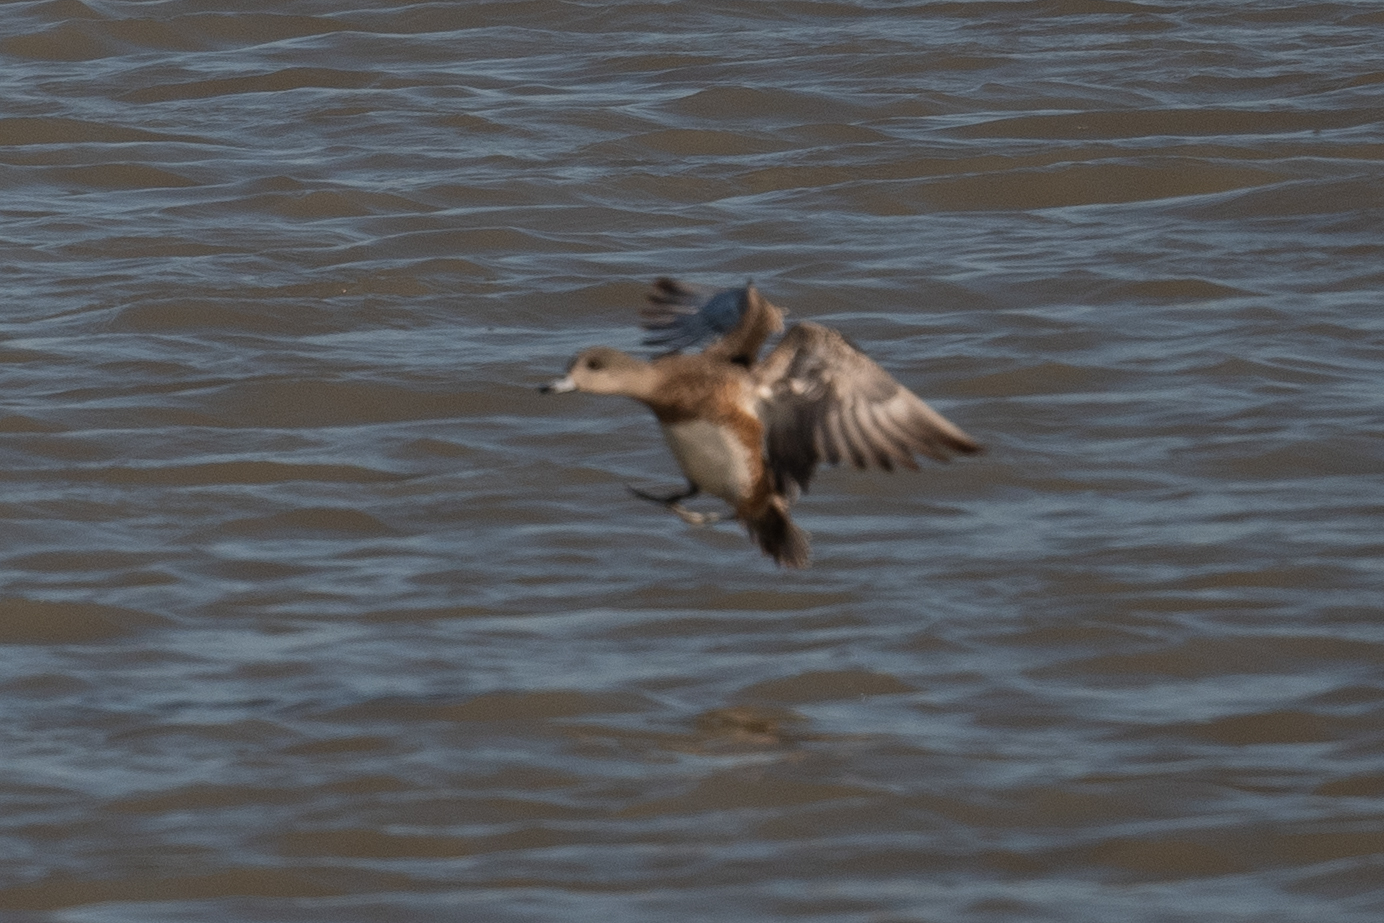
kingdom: Animalia
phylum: Chordata
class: Aves
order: Anseriformes
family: Anatidae
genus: Mareca
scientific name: Mareca americana
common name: American wigeon
